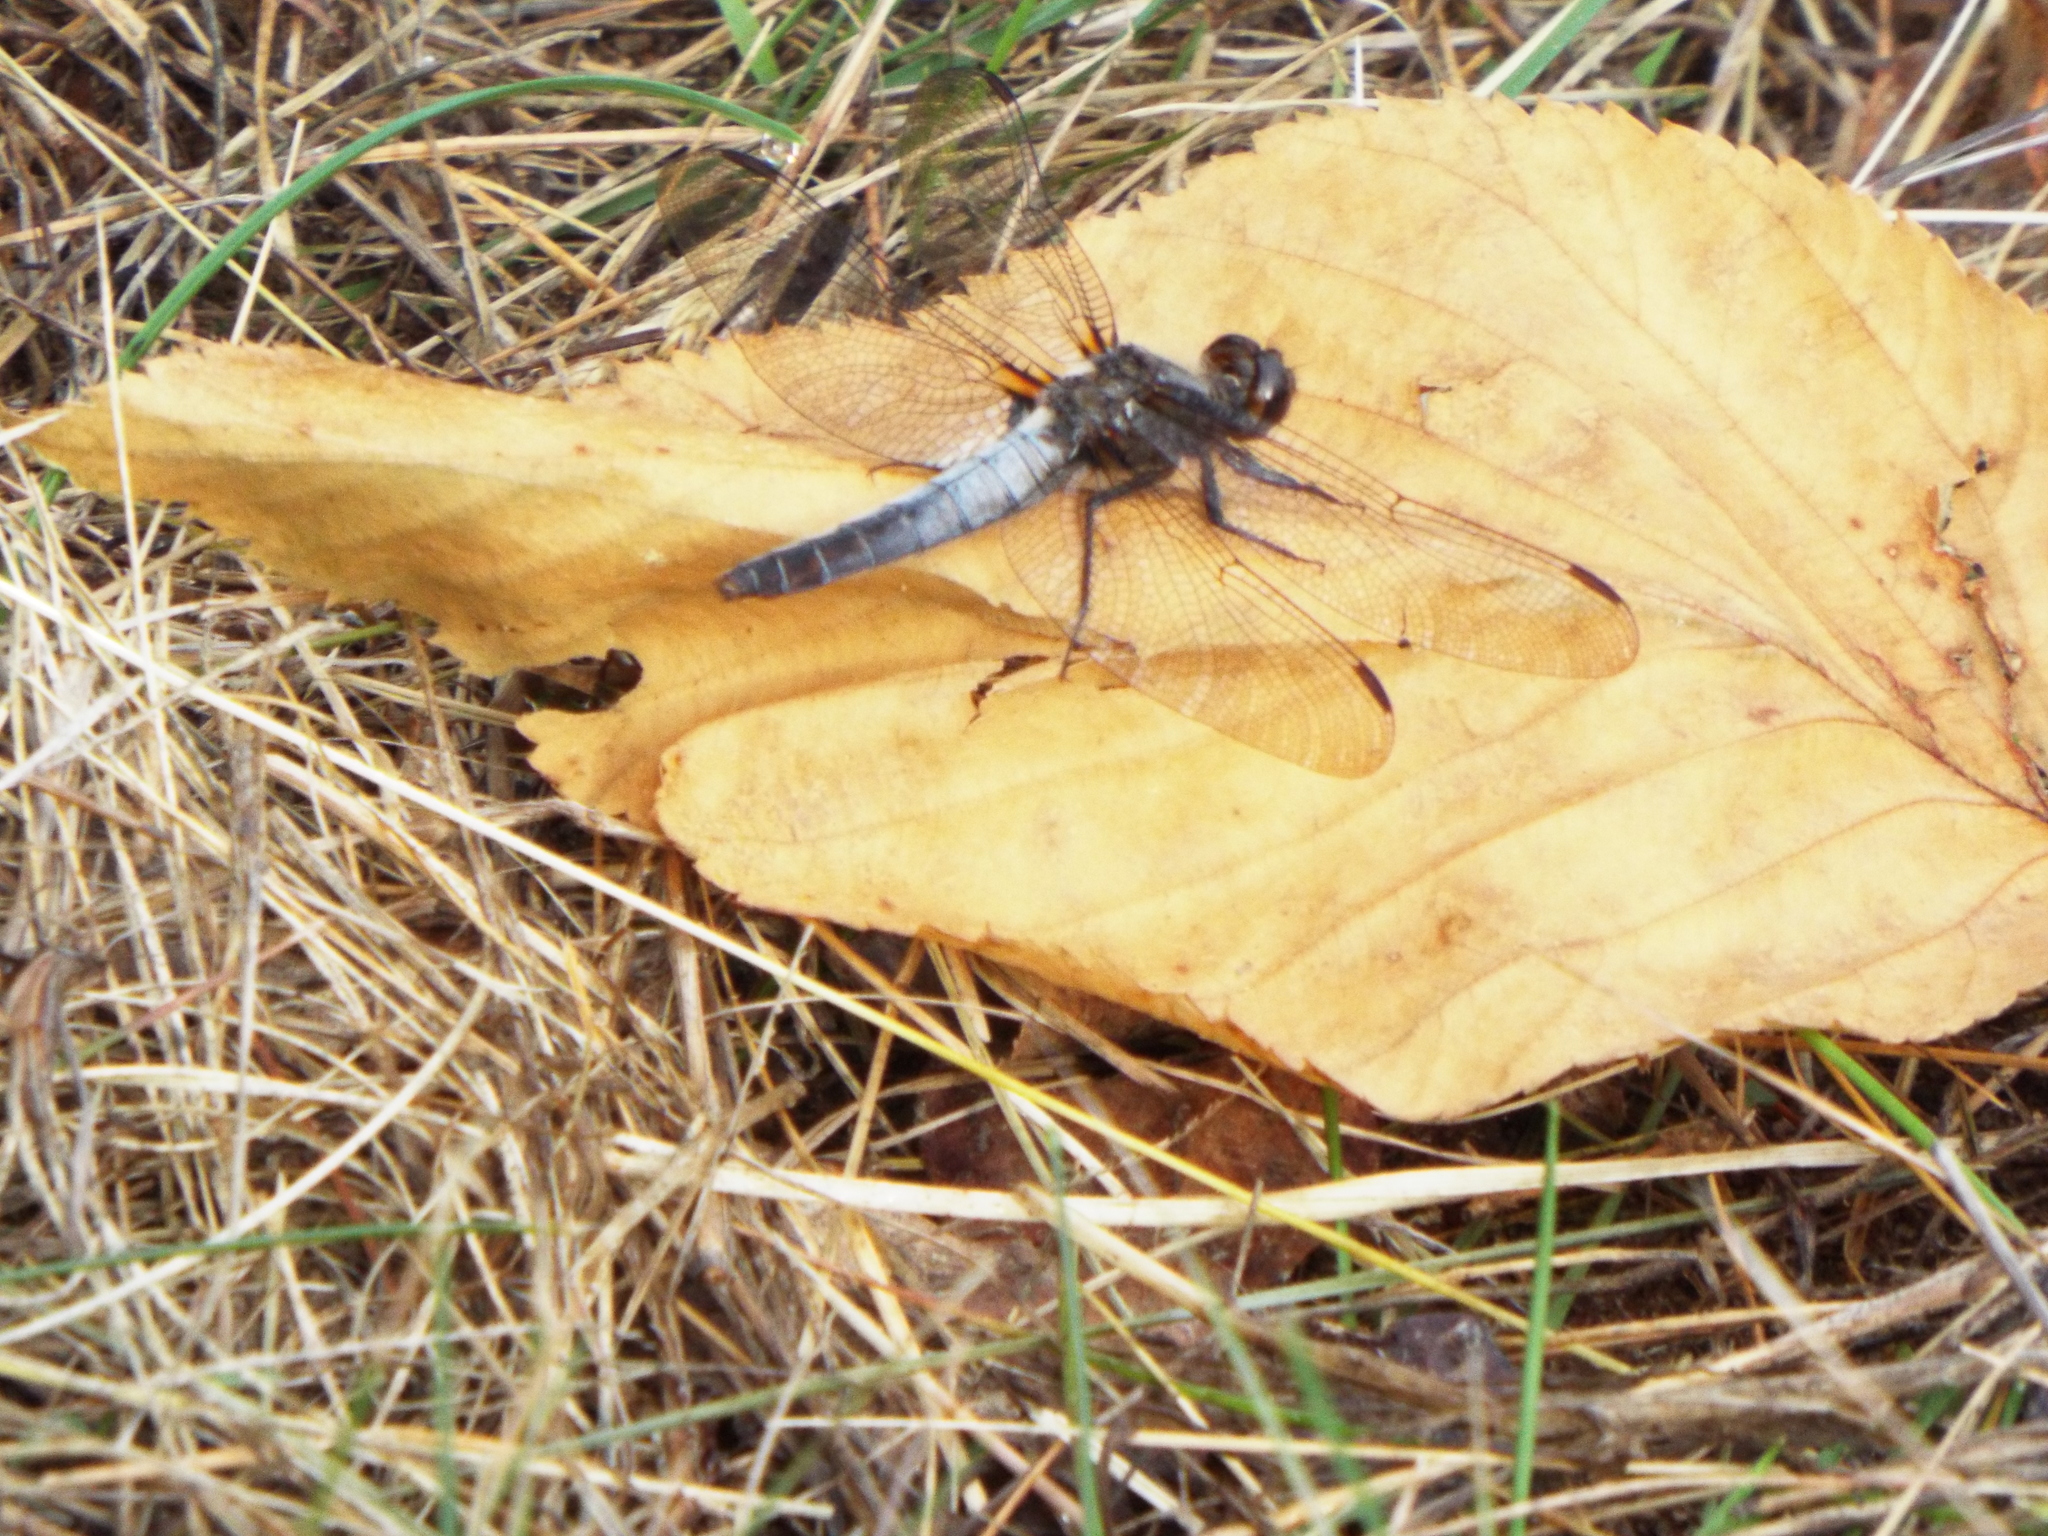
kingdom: Animalia
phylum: Arthropoda
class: Insecta
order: Odonata
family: Libellulidae
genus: Ladona
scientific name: Ladona julia
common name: Chalk-fronted corporal
